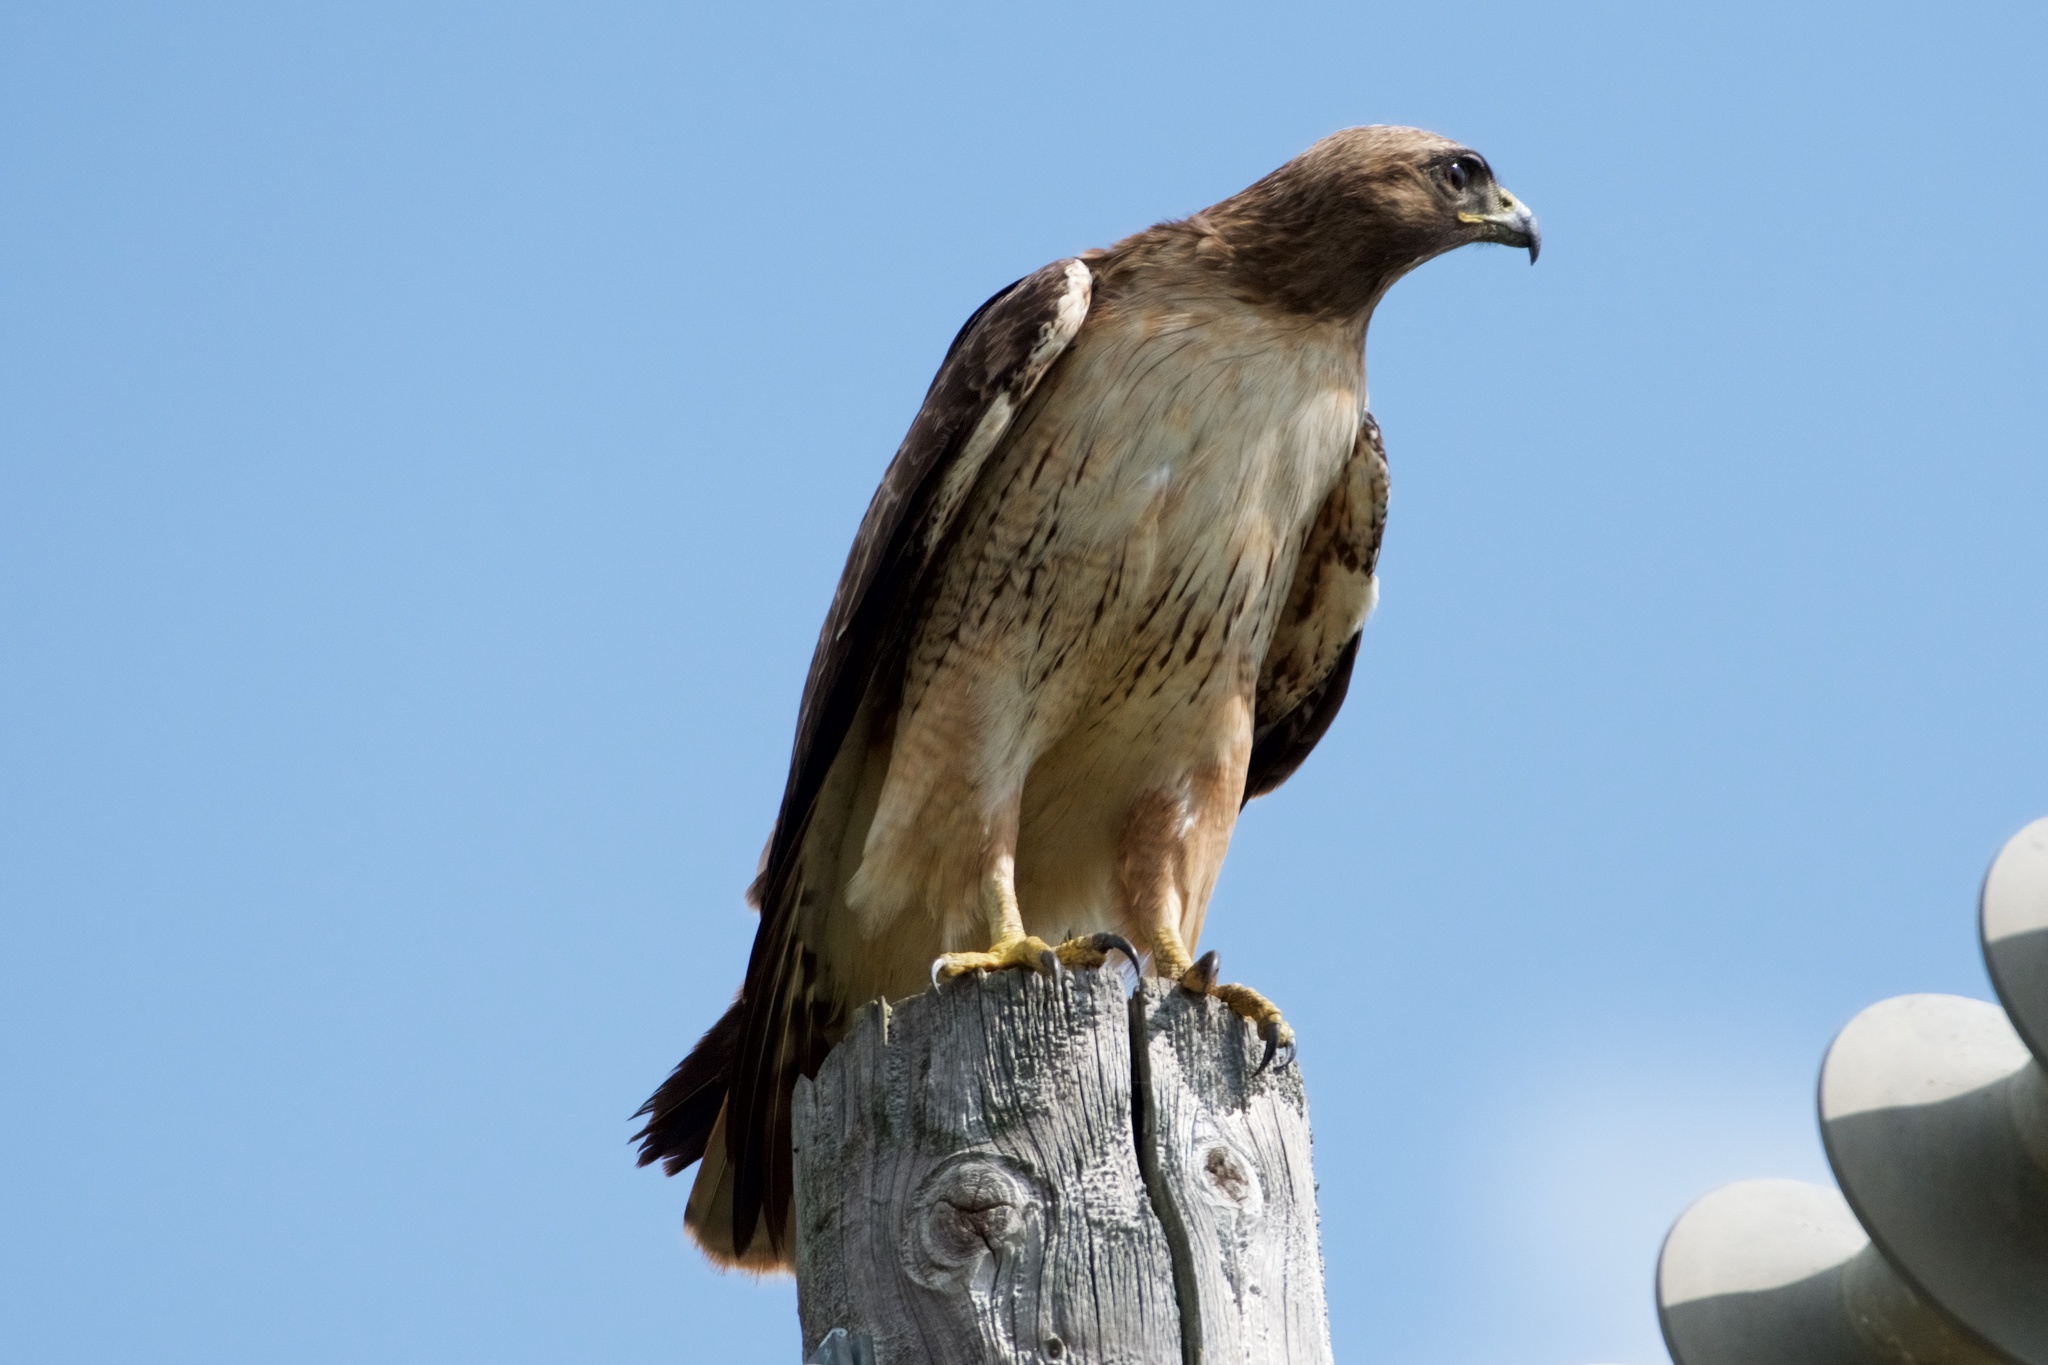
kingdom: Animalia
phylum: Chordata
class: Aves
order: Accipitriformes
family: Accipitridae
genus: Buteo
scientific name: Buteo jamaicensis
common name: Red-tailed hawk
